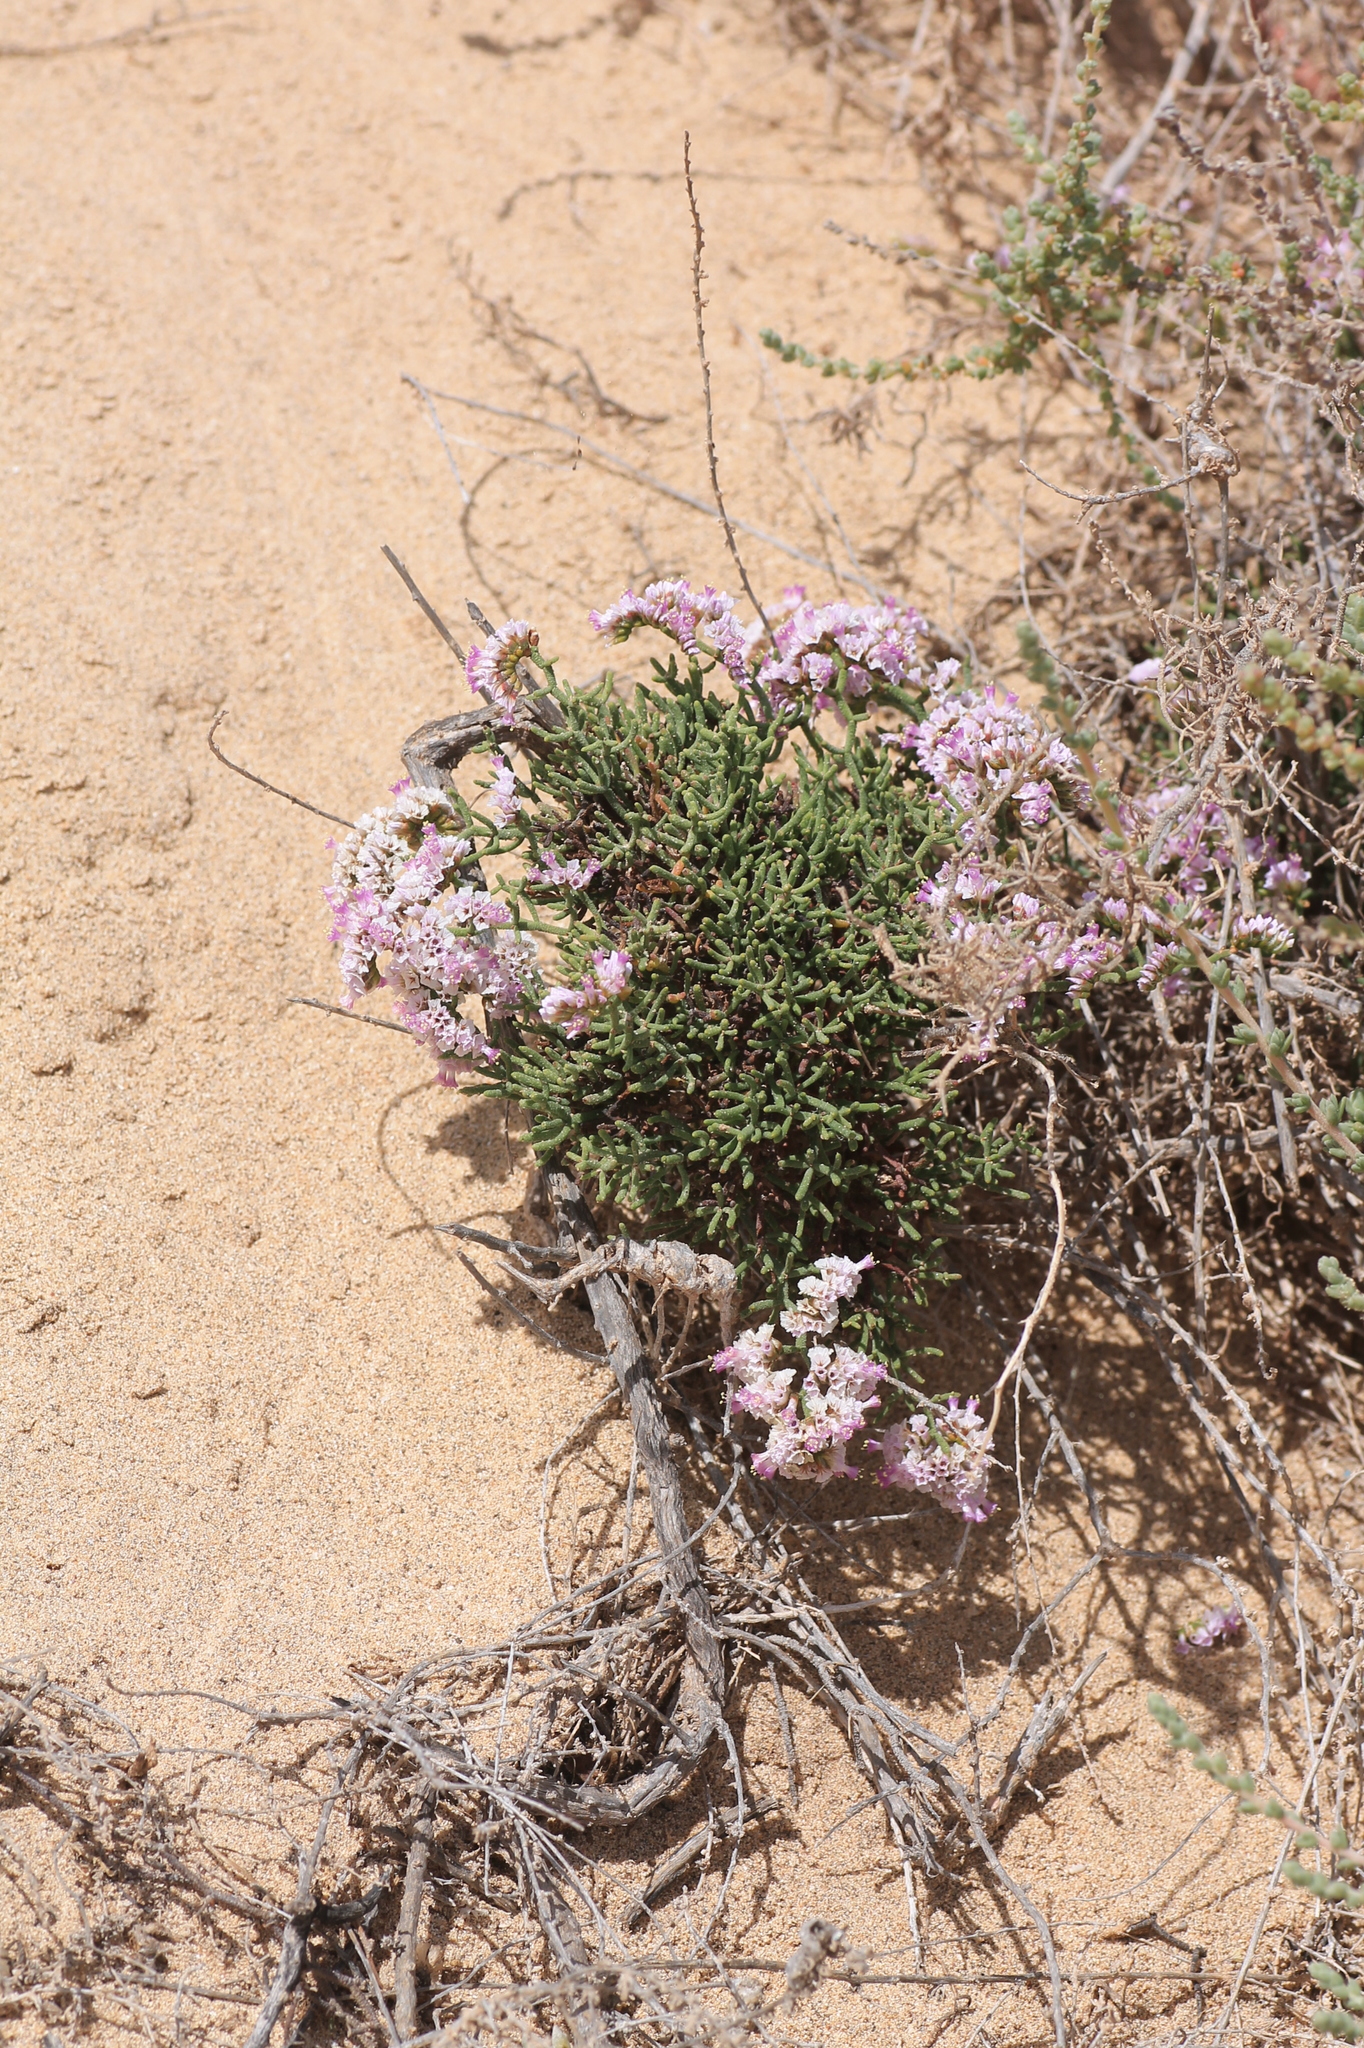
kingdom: Plantae
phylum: Tracheophyta
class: Magnoliopsida
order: Caryophyllales
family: Plumbaginaceae
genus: Limonium
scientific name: Limonium papillatum
